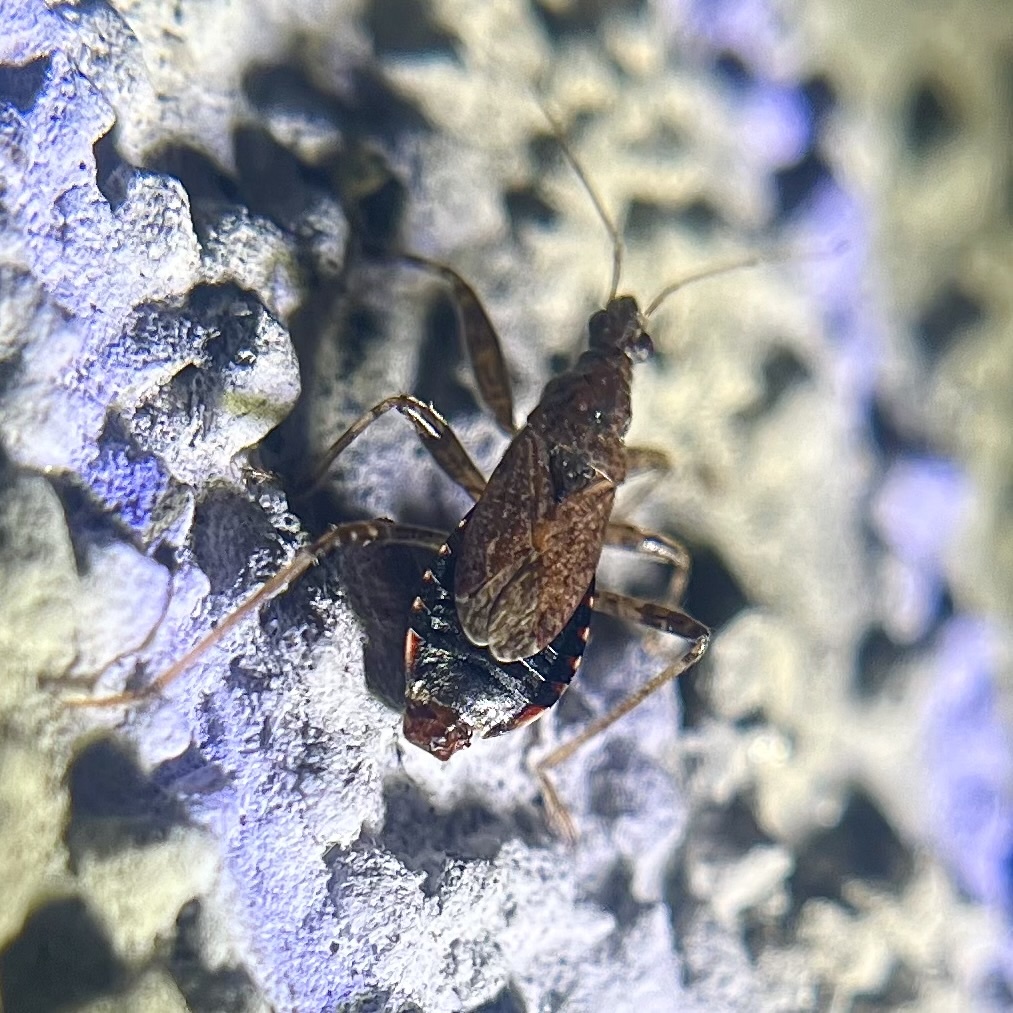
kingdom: Animalia
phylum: Arthropoda
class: Insecta
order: Hemiptera
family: Nabidae
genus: Himacerus
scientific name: Himacerus mirmicoides
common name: Ant damsel bug
